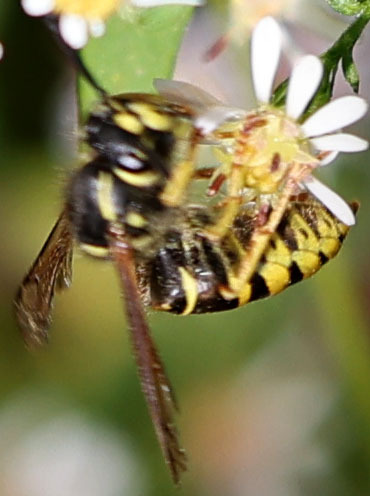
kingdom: Animalia
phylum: Arthropoda
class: Insecta
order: Hymenoptera
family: Vespidae
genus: Vespula
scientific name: Vespula vidua
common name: Widow yellowjacket
